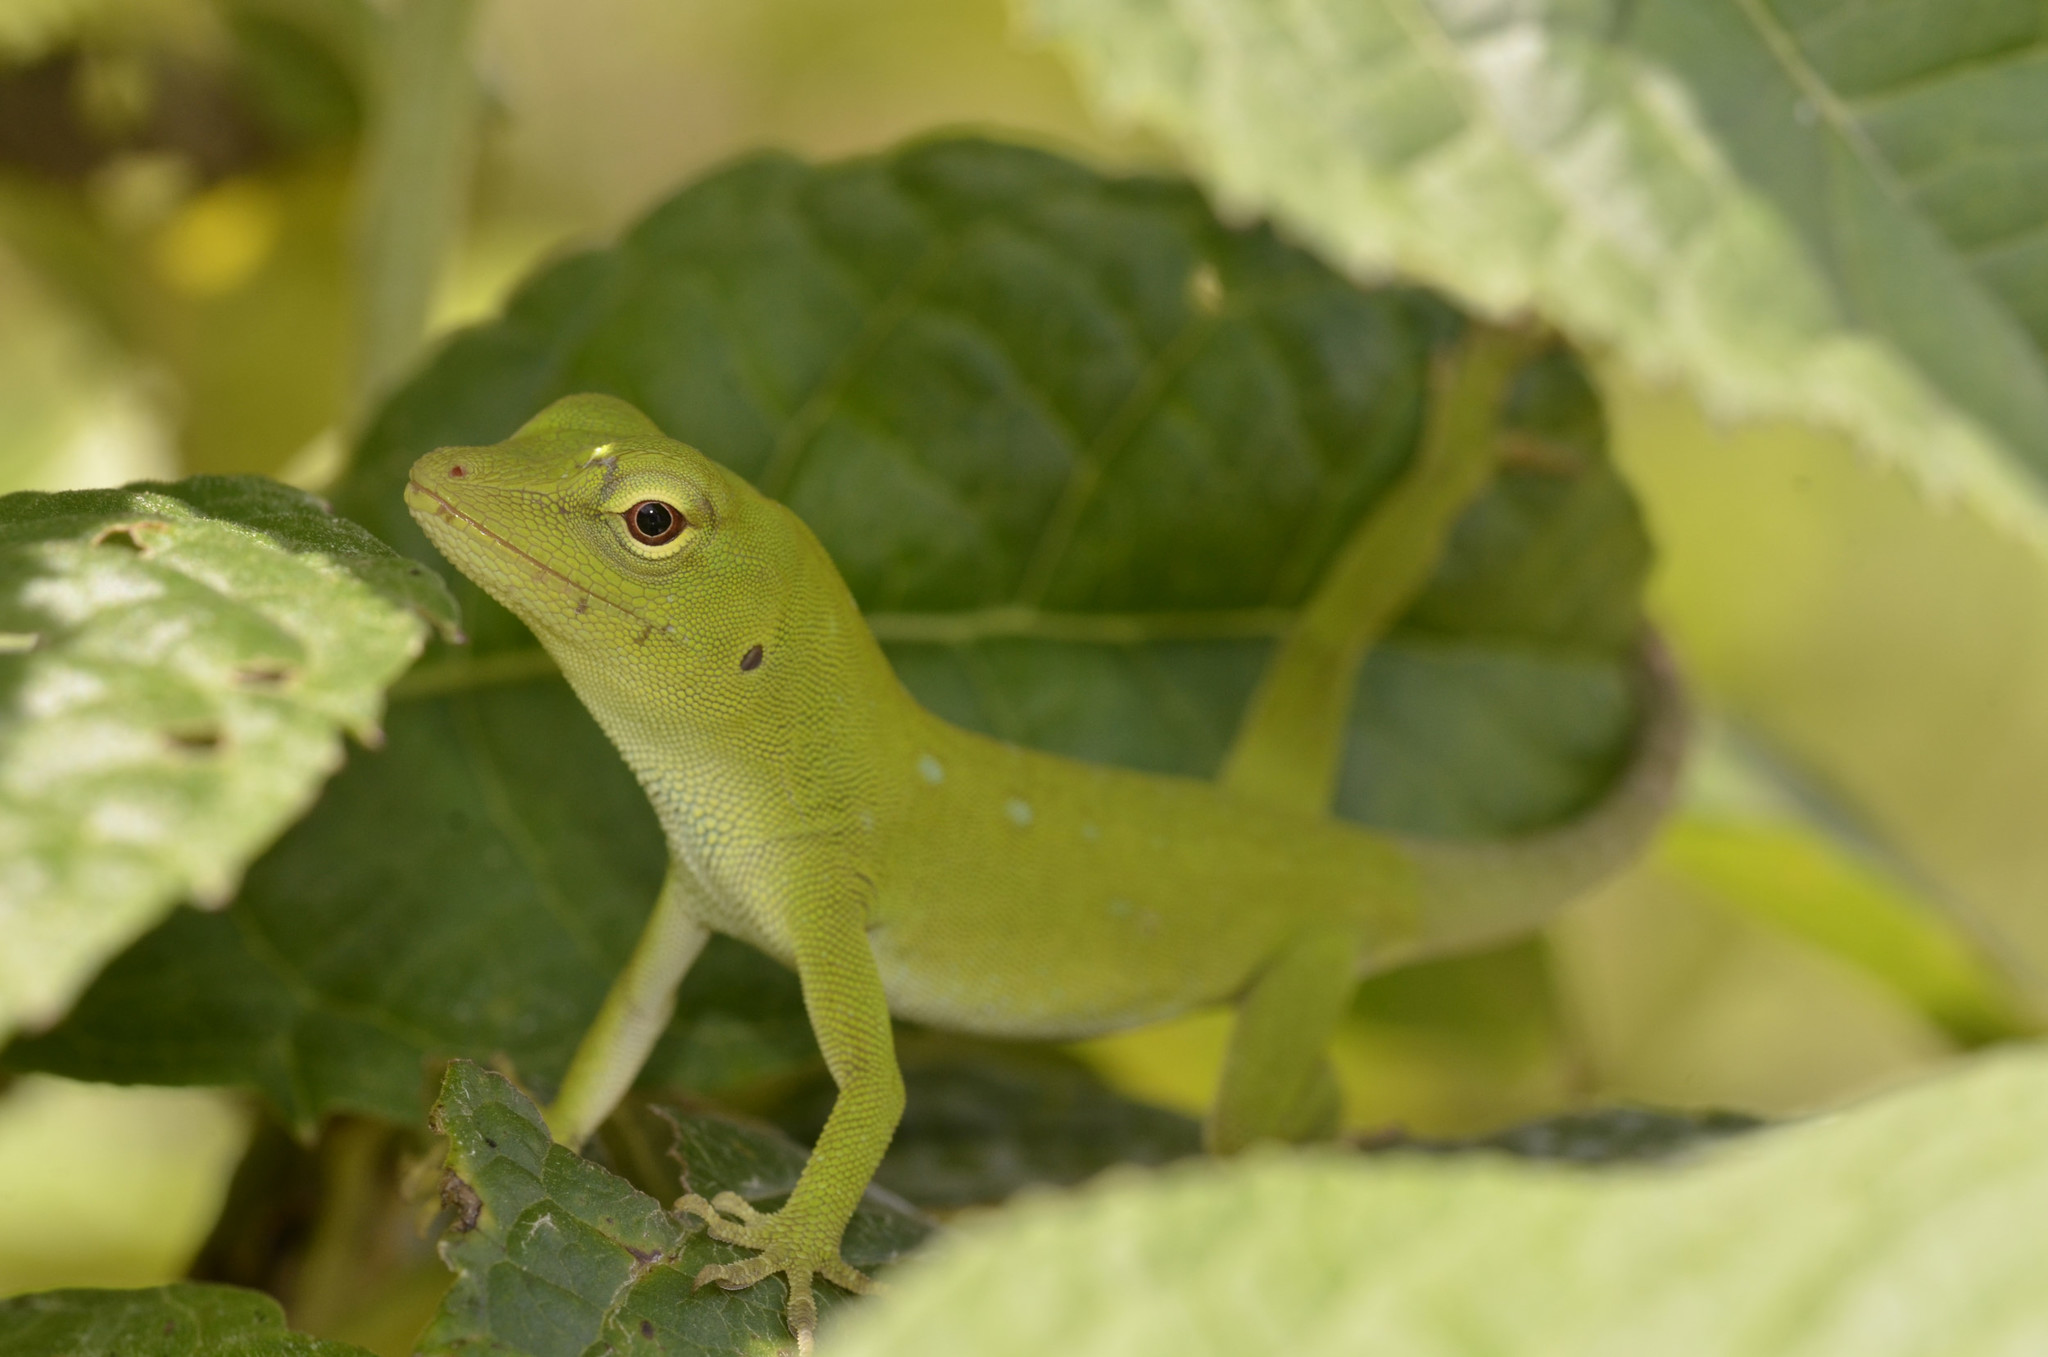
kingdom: Animalia
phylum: Chordata
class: Squamata
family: Dactyloidae
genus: Anolis
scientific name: Anolis parvauritus
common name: Giant green anole
